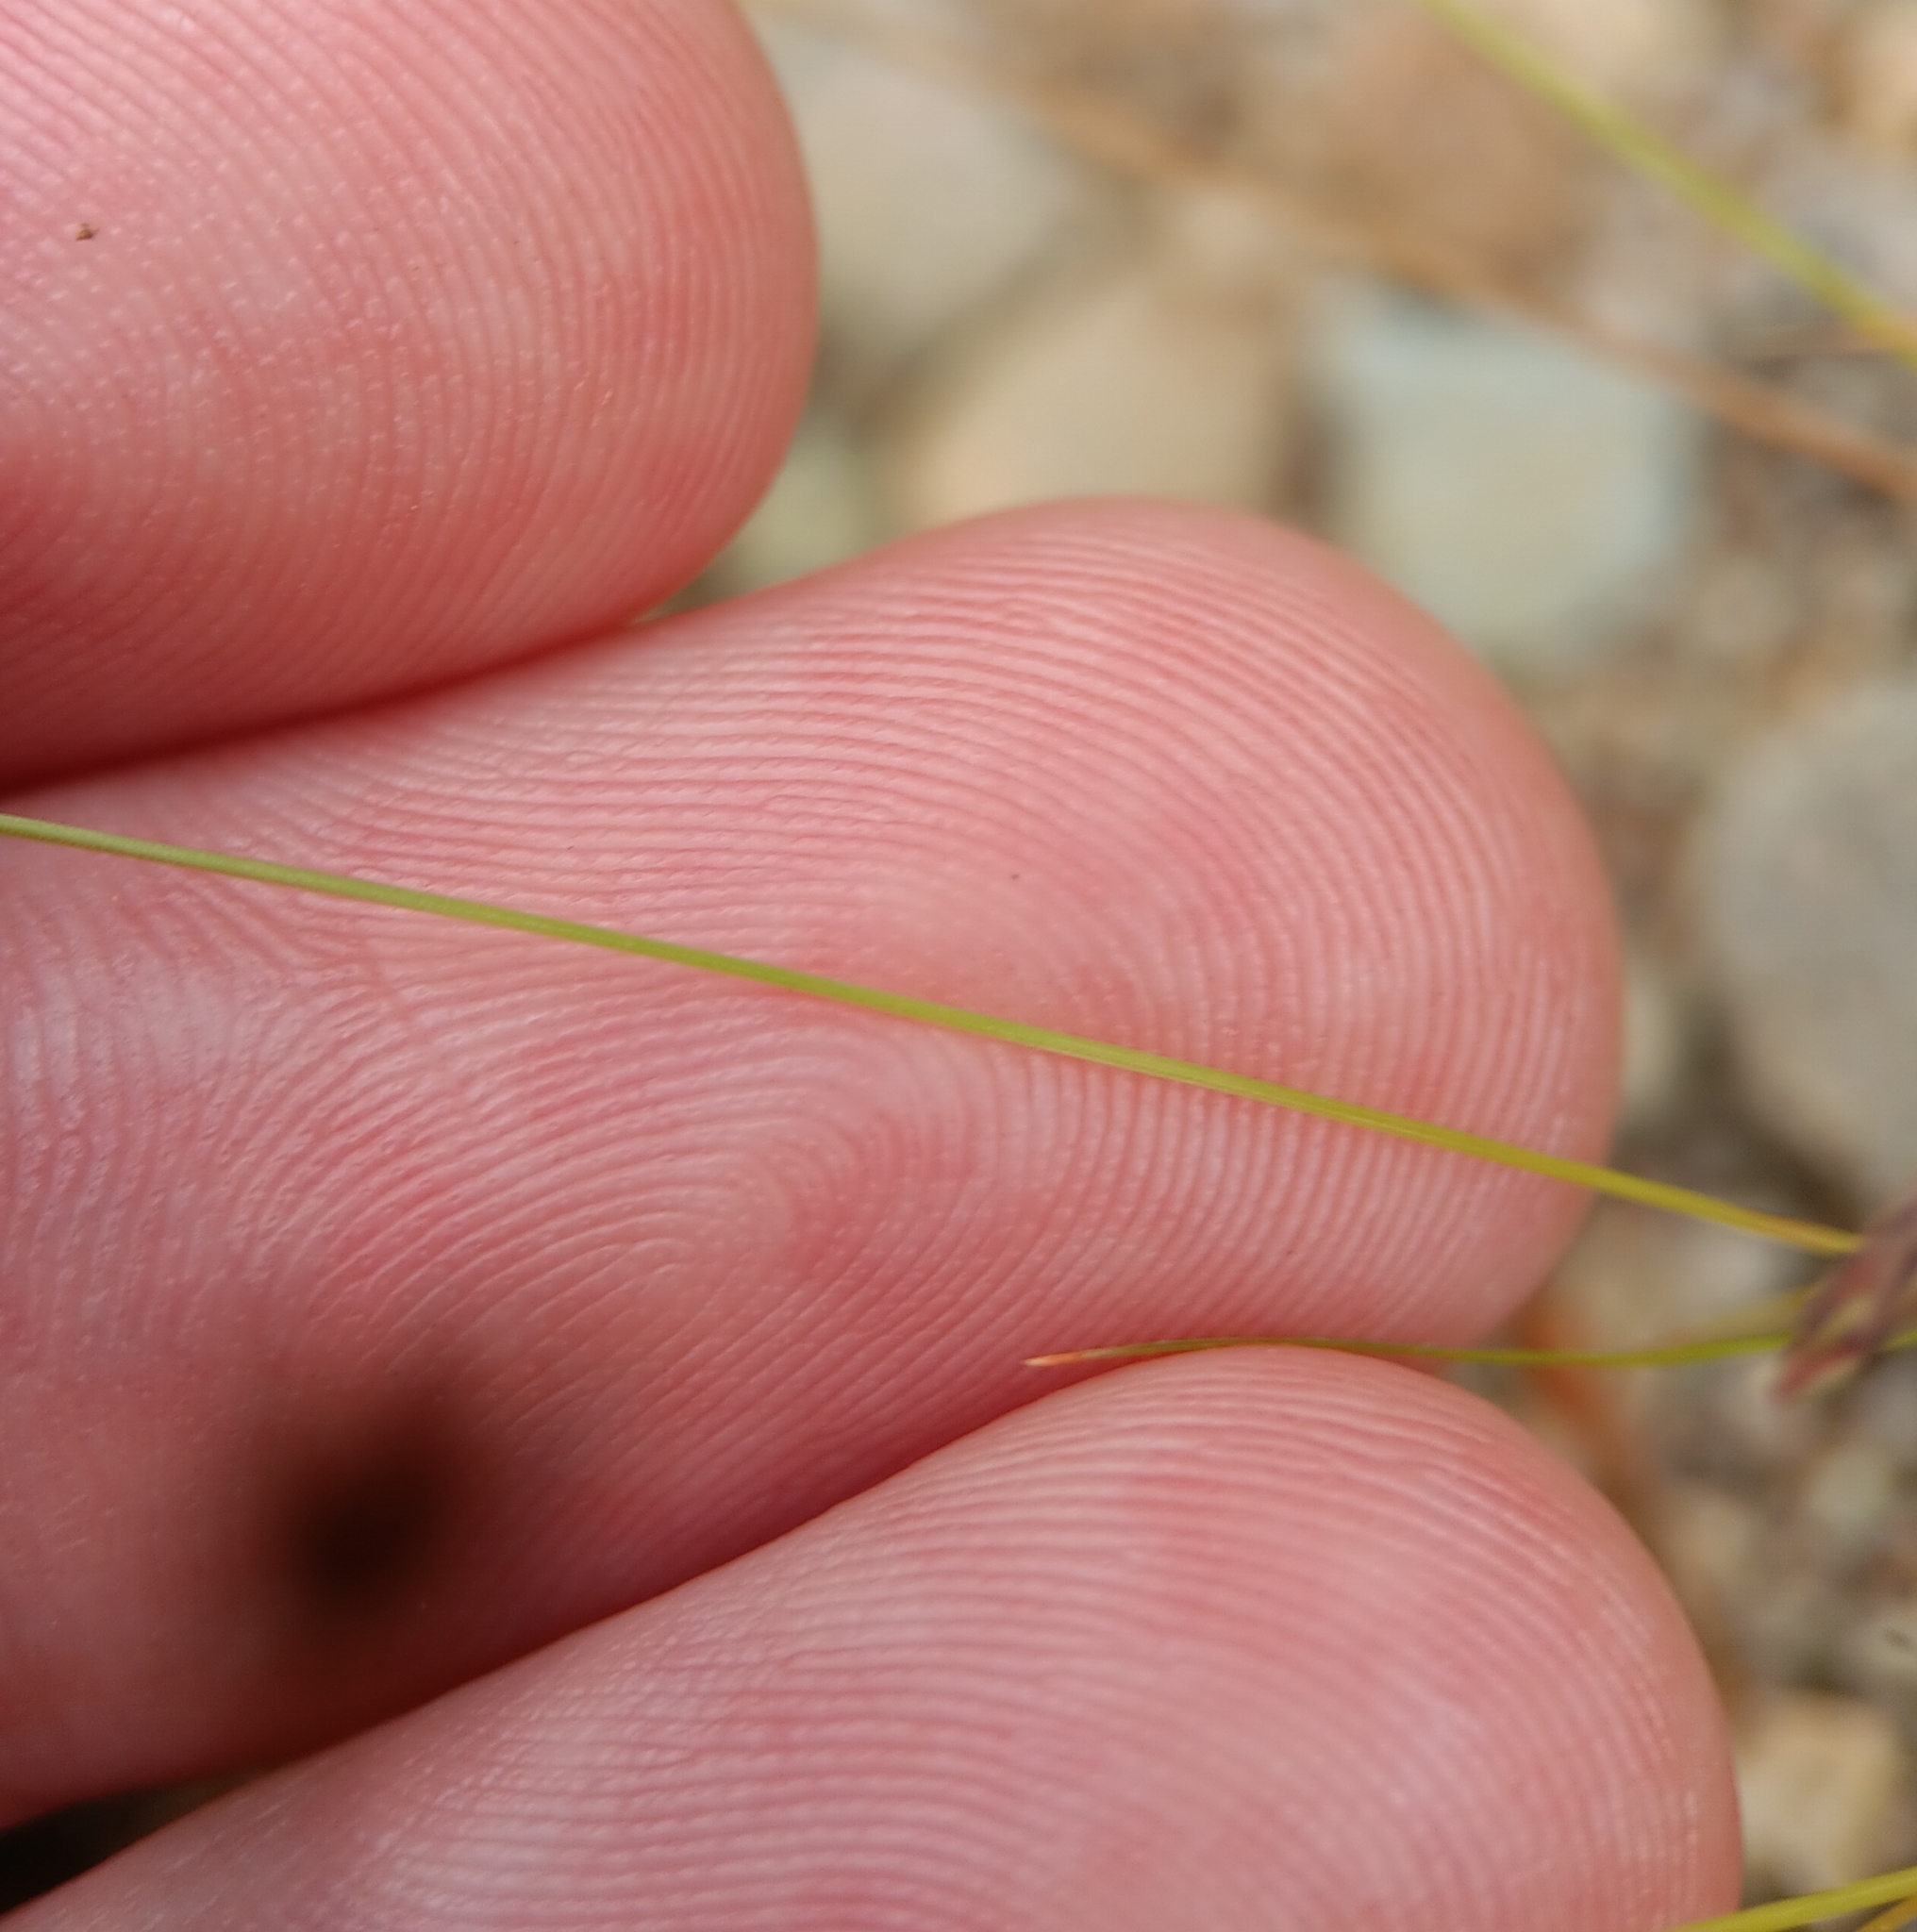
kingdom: Plantae
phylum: Tracheophyta
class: Liliopsida
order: Poales
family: Cyperaceae
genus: Bulbostylis
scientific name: Bulbostylis capillaris
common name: Densetuft hairsedge
